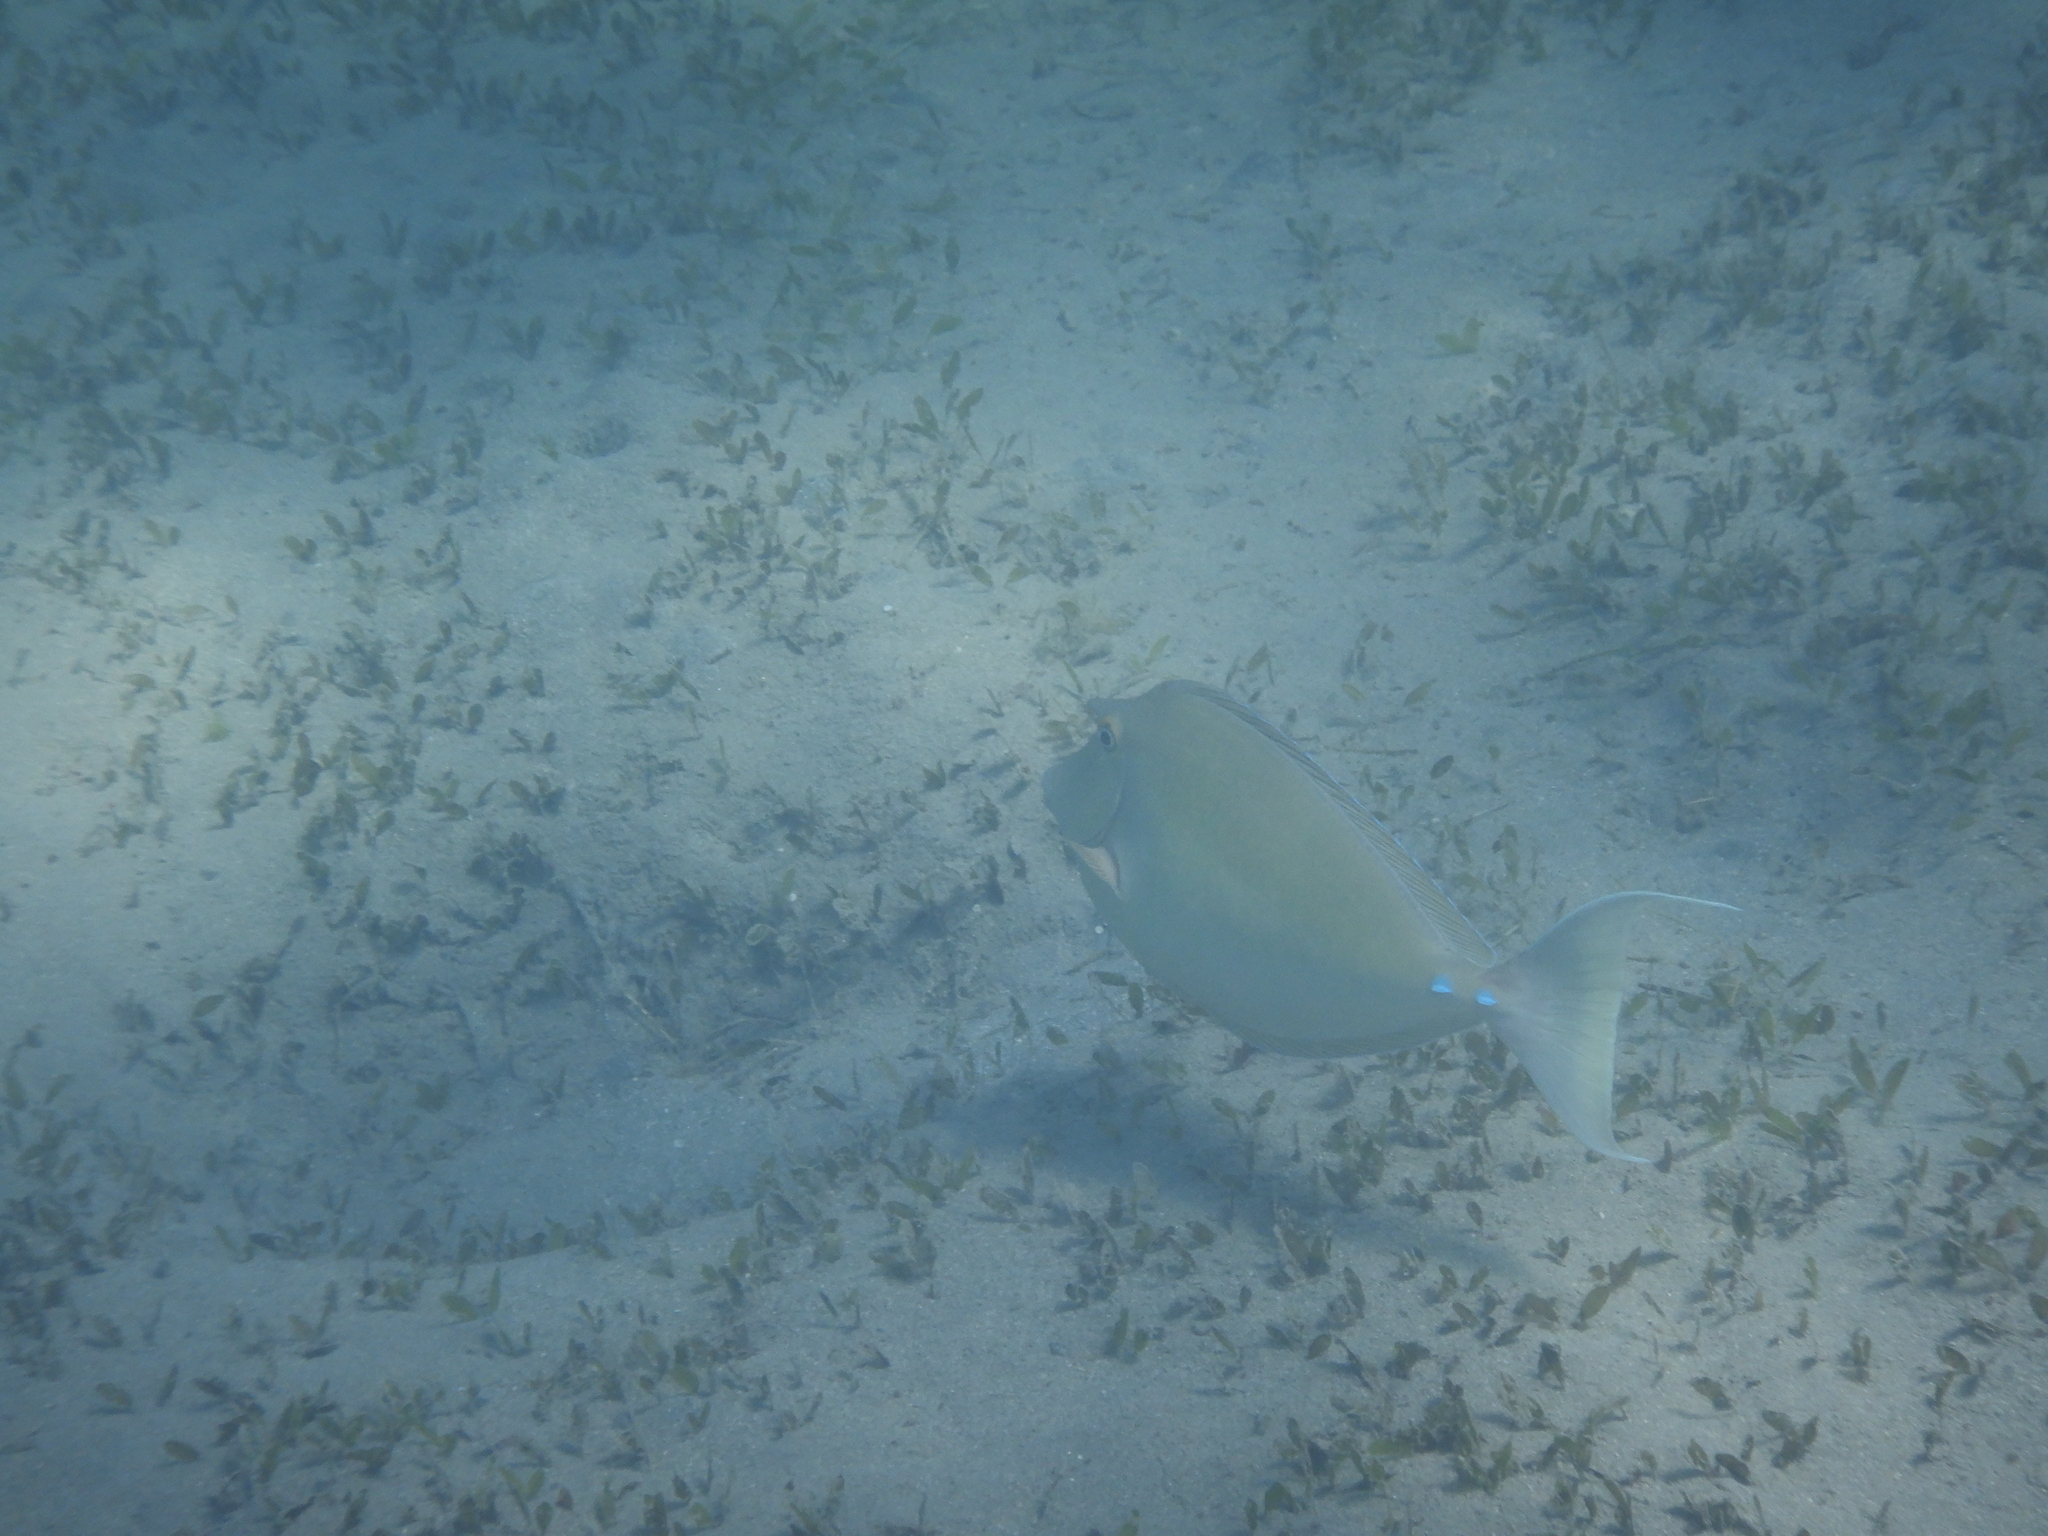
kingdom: Animalia
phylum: Chordata
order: Perciformes
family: Acanthuridae
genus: Naso
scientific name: Naso unicornis
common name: Bluespine unicornfish
